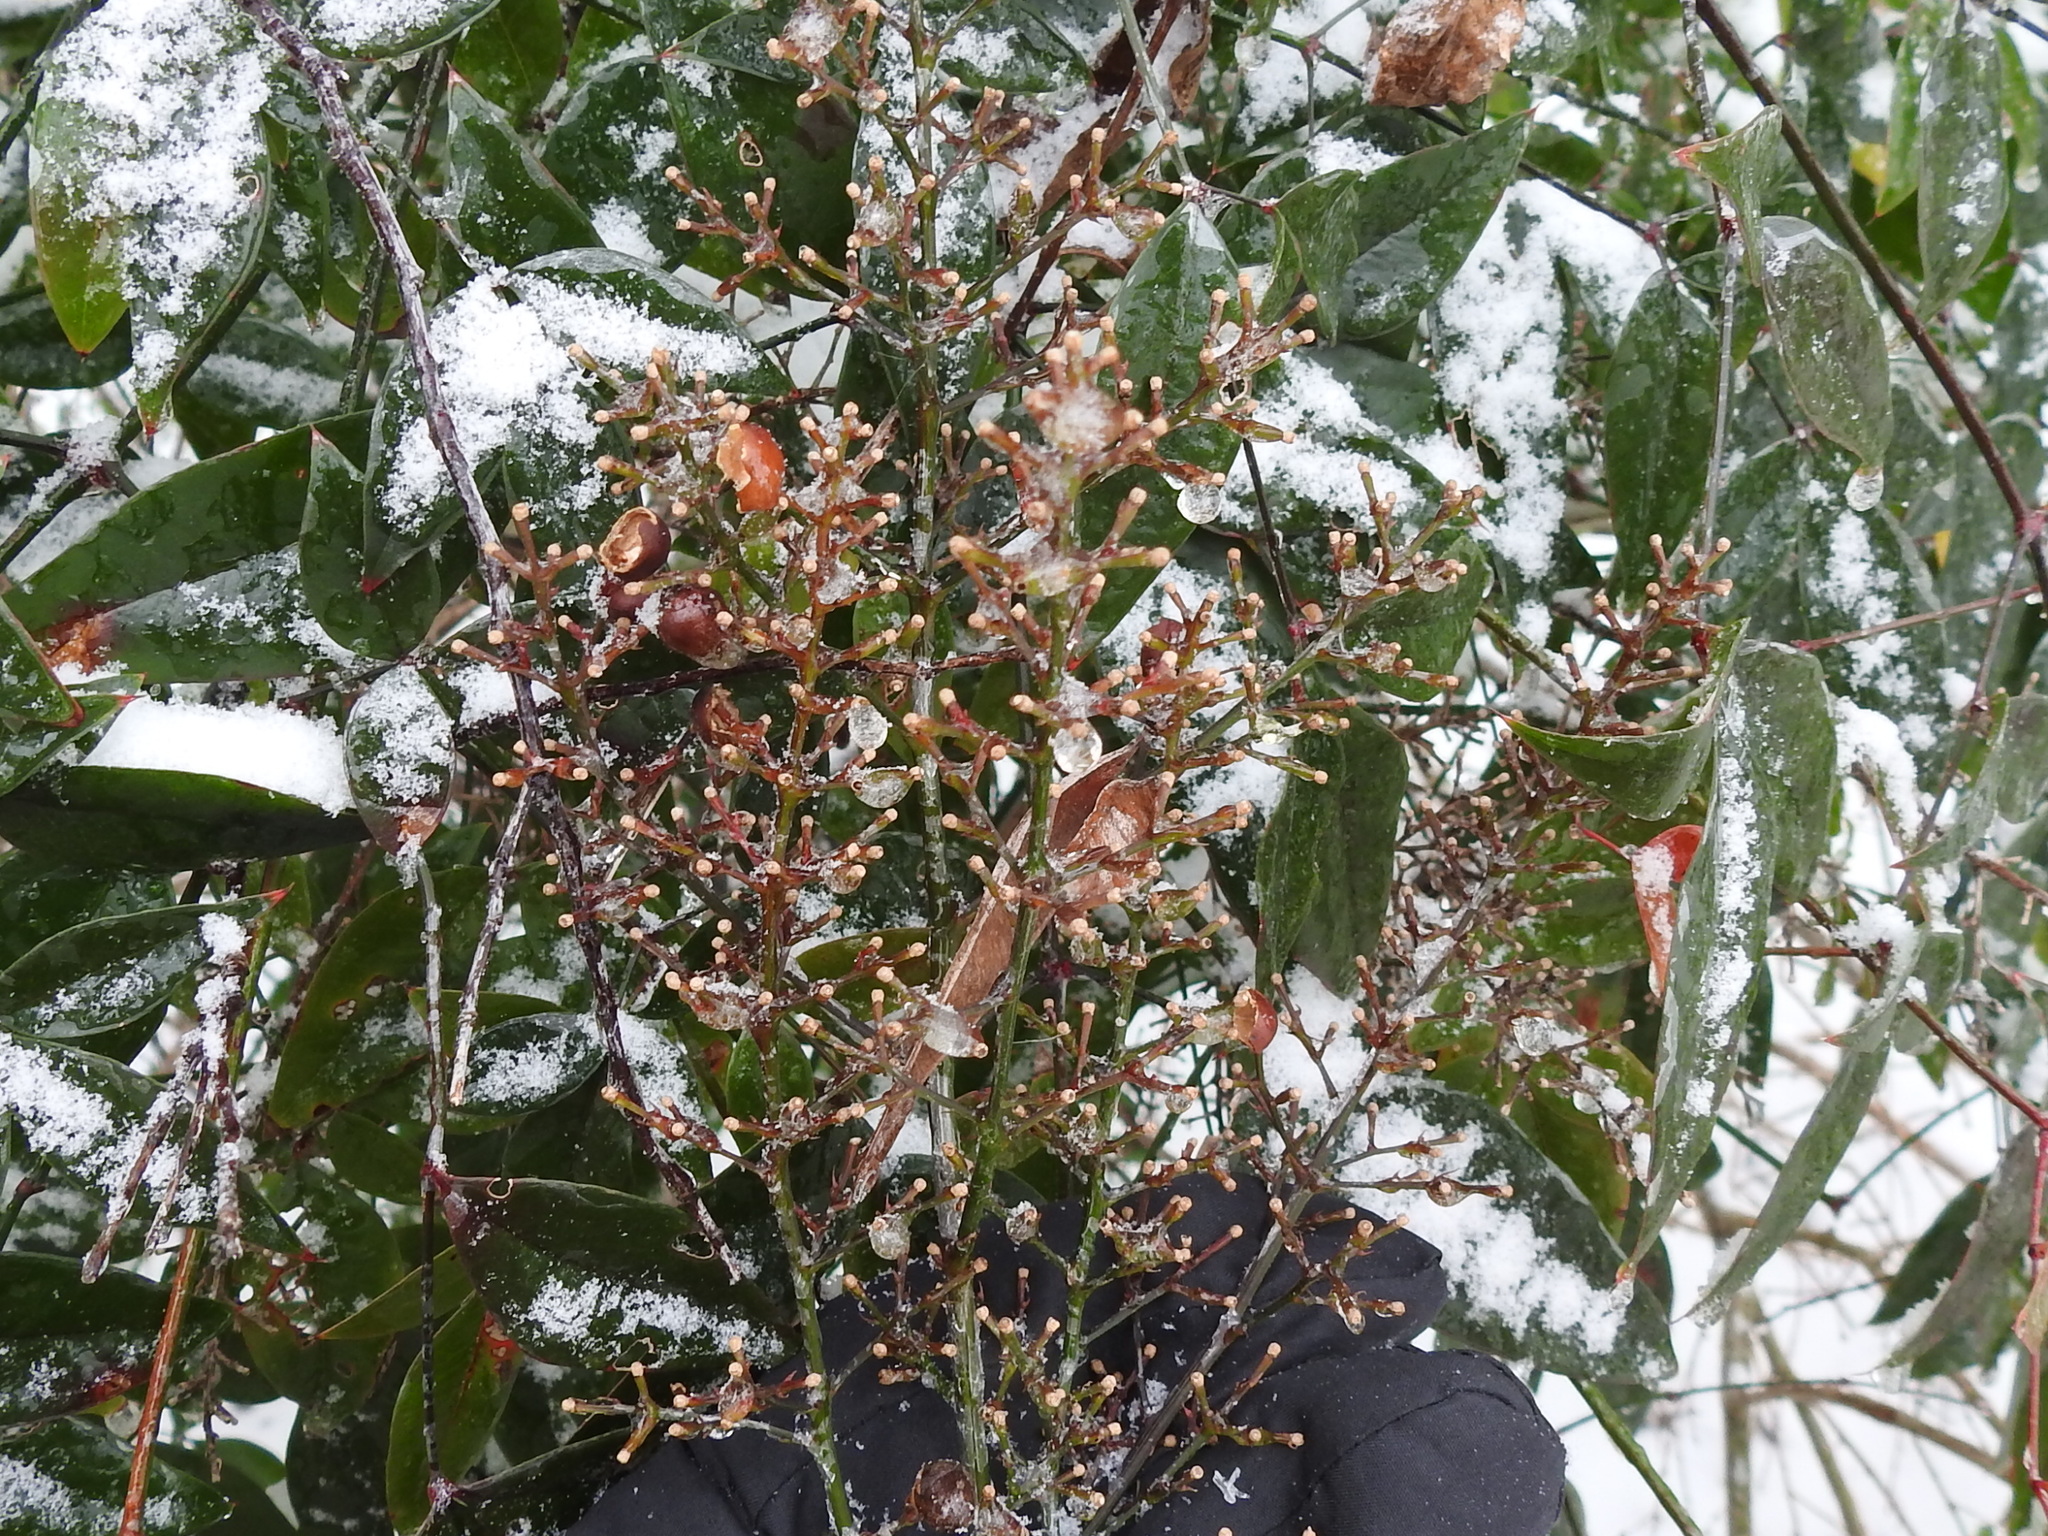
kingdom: Plantae
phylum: Tracheophyta
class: Magnoliopsida
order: Ranunculales
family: Berberidaceae
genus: Nandina
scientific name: Nandina domestica
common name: Sacred bamboo
